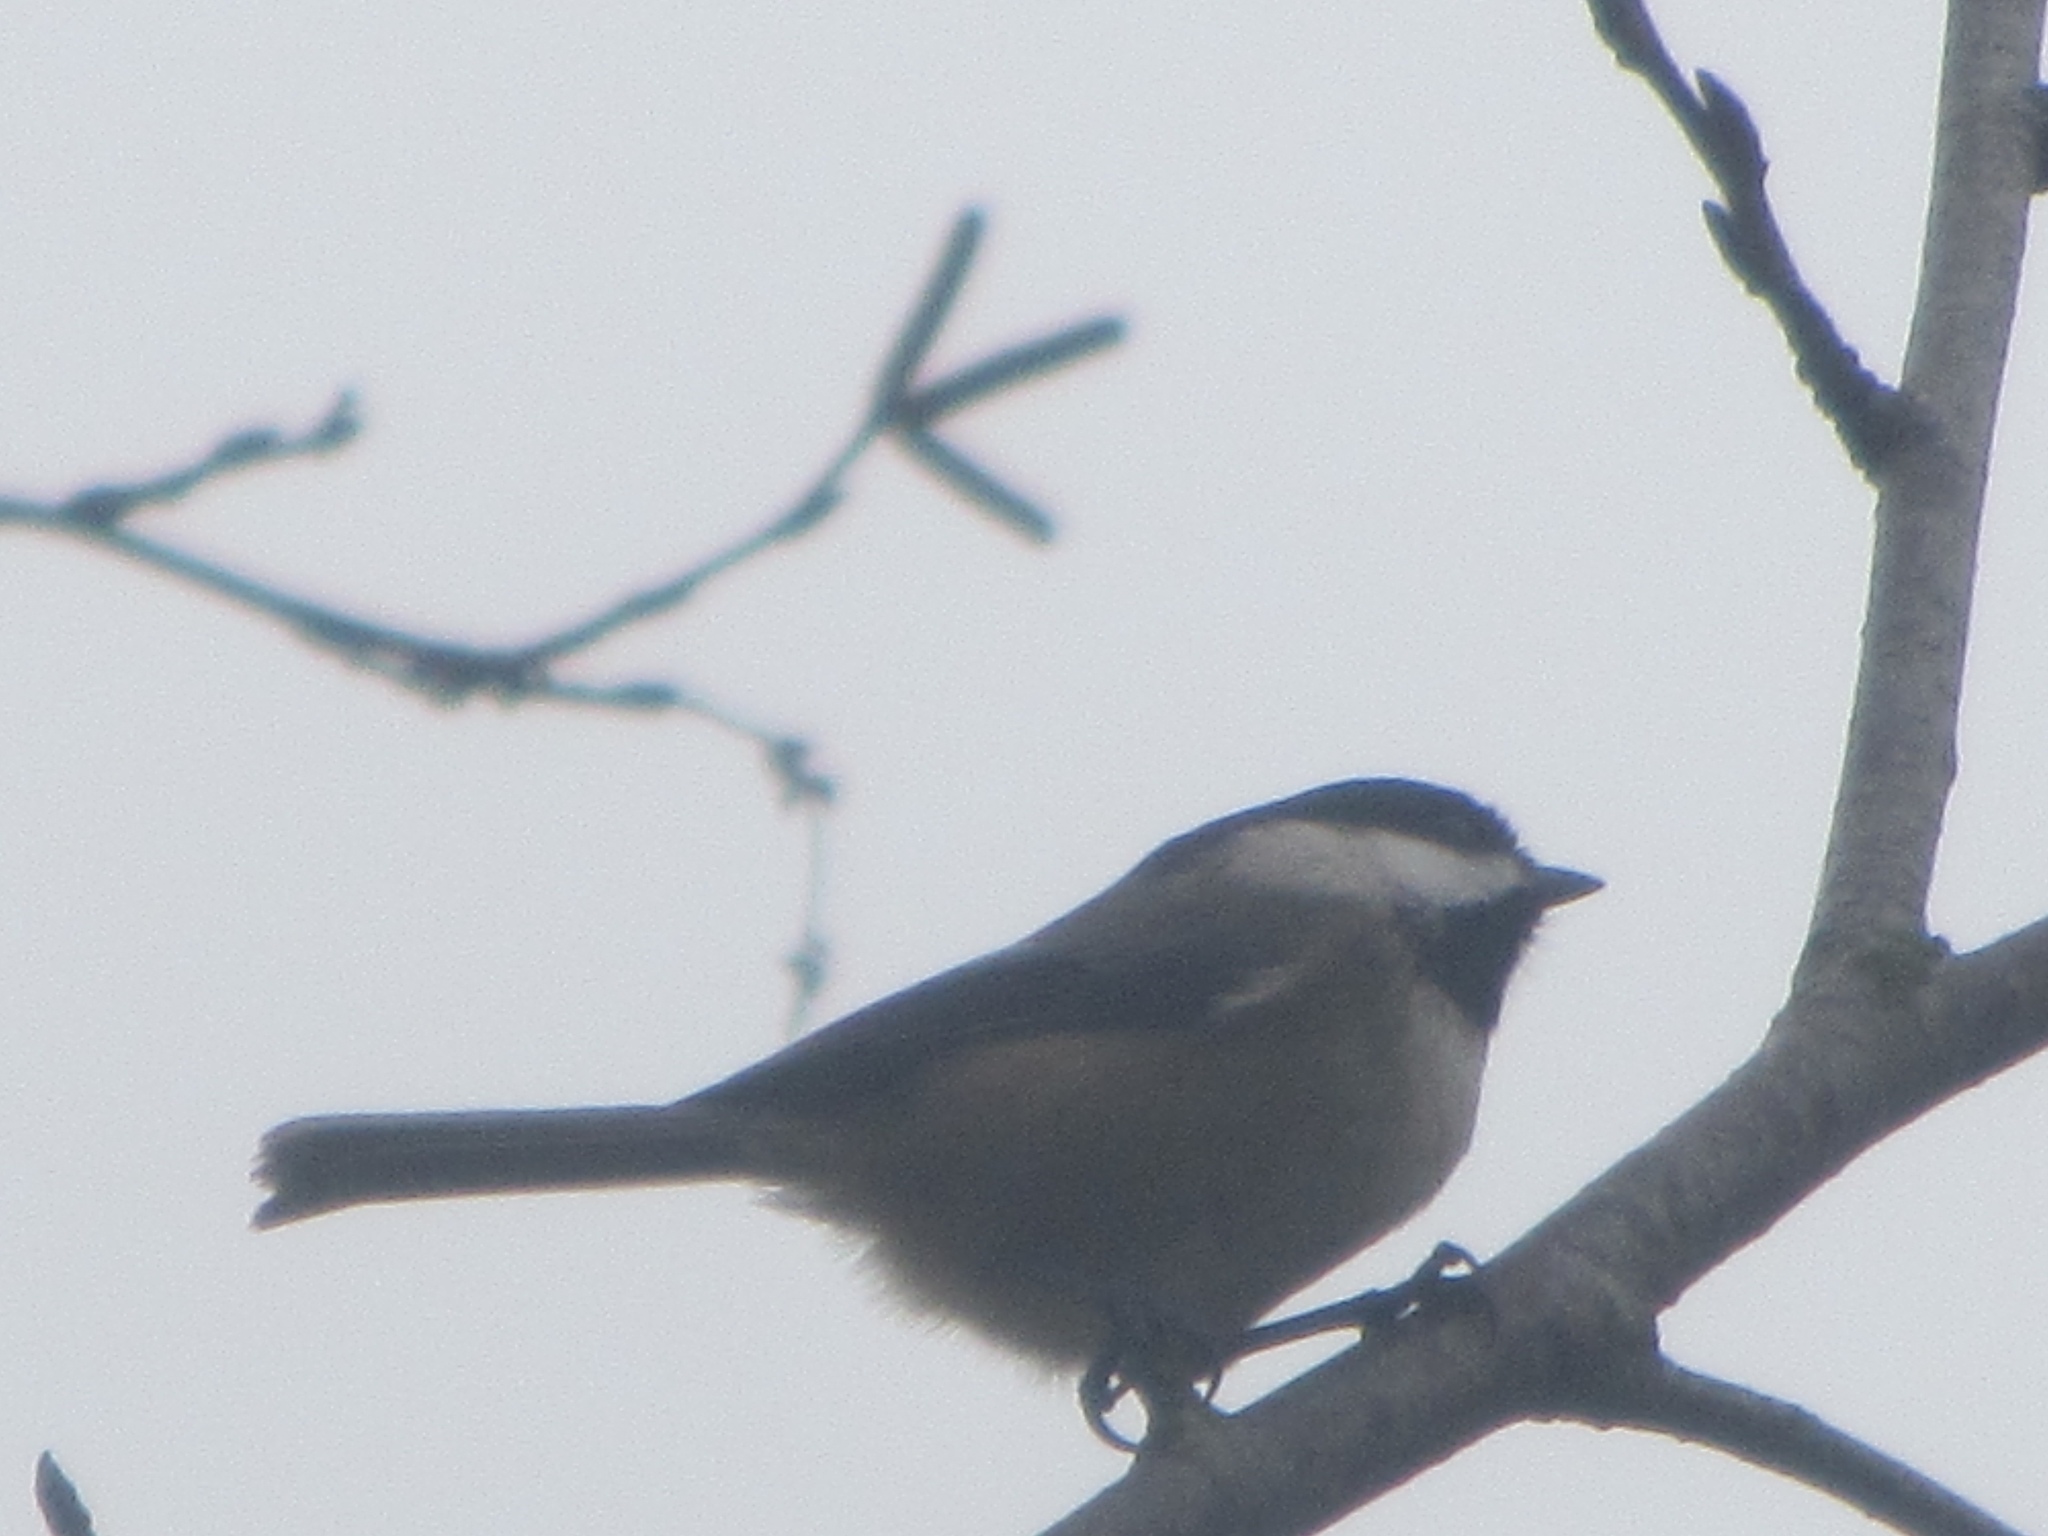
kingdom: Animalia
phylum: Chordata
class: Aves
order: Passeriformes
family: Paridae
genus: Poecile
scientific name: Poecile atricapillus
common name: Black-capped chickadee
